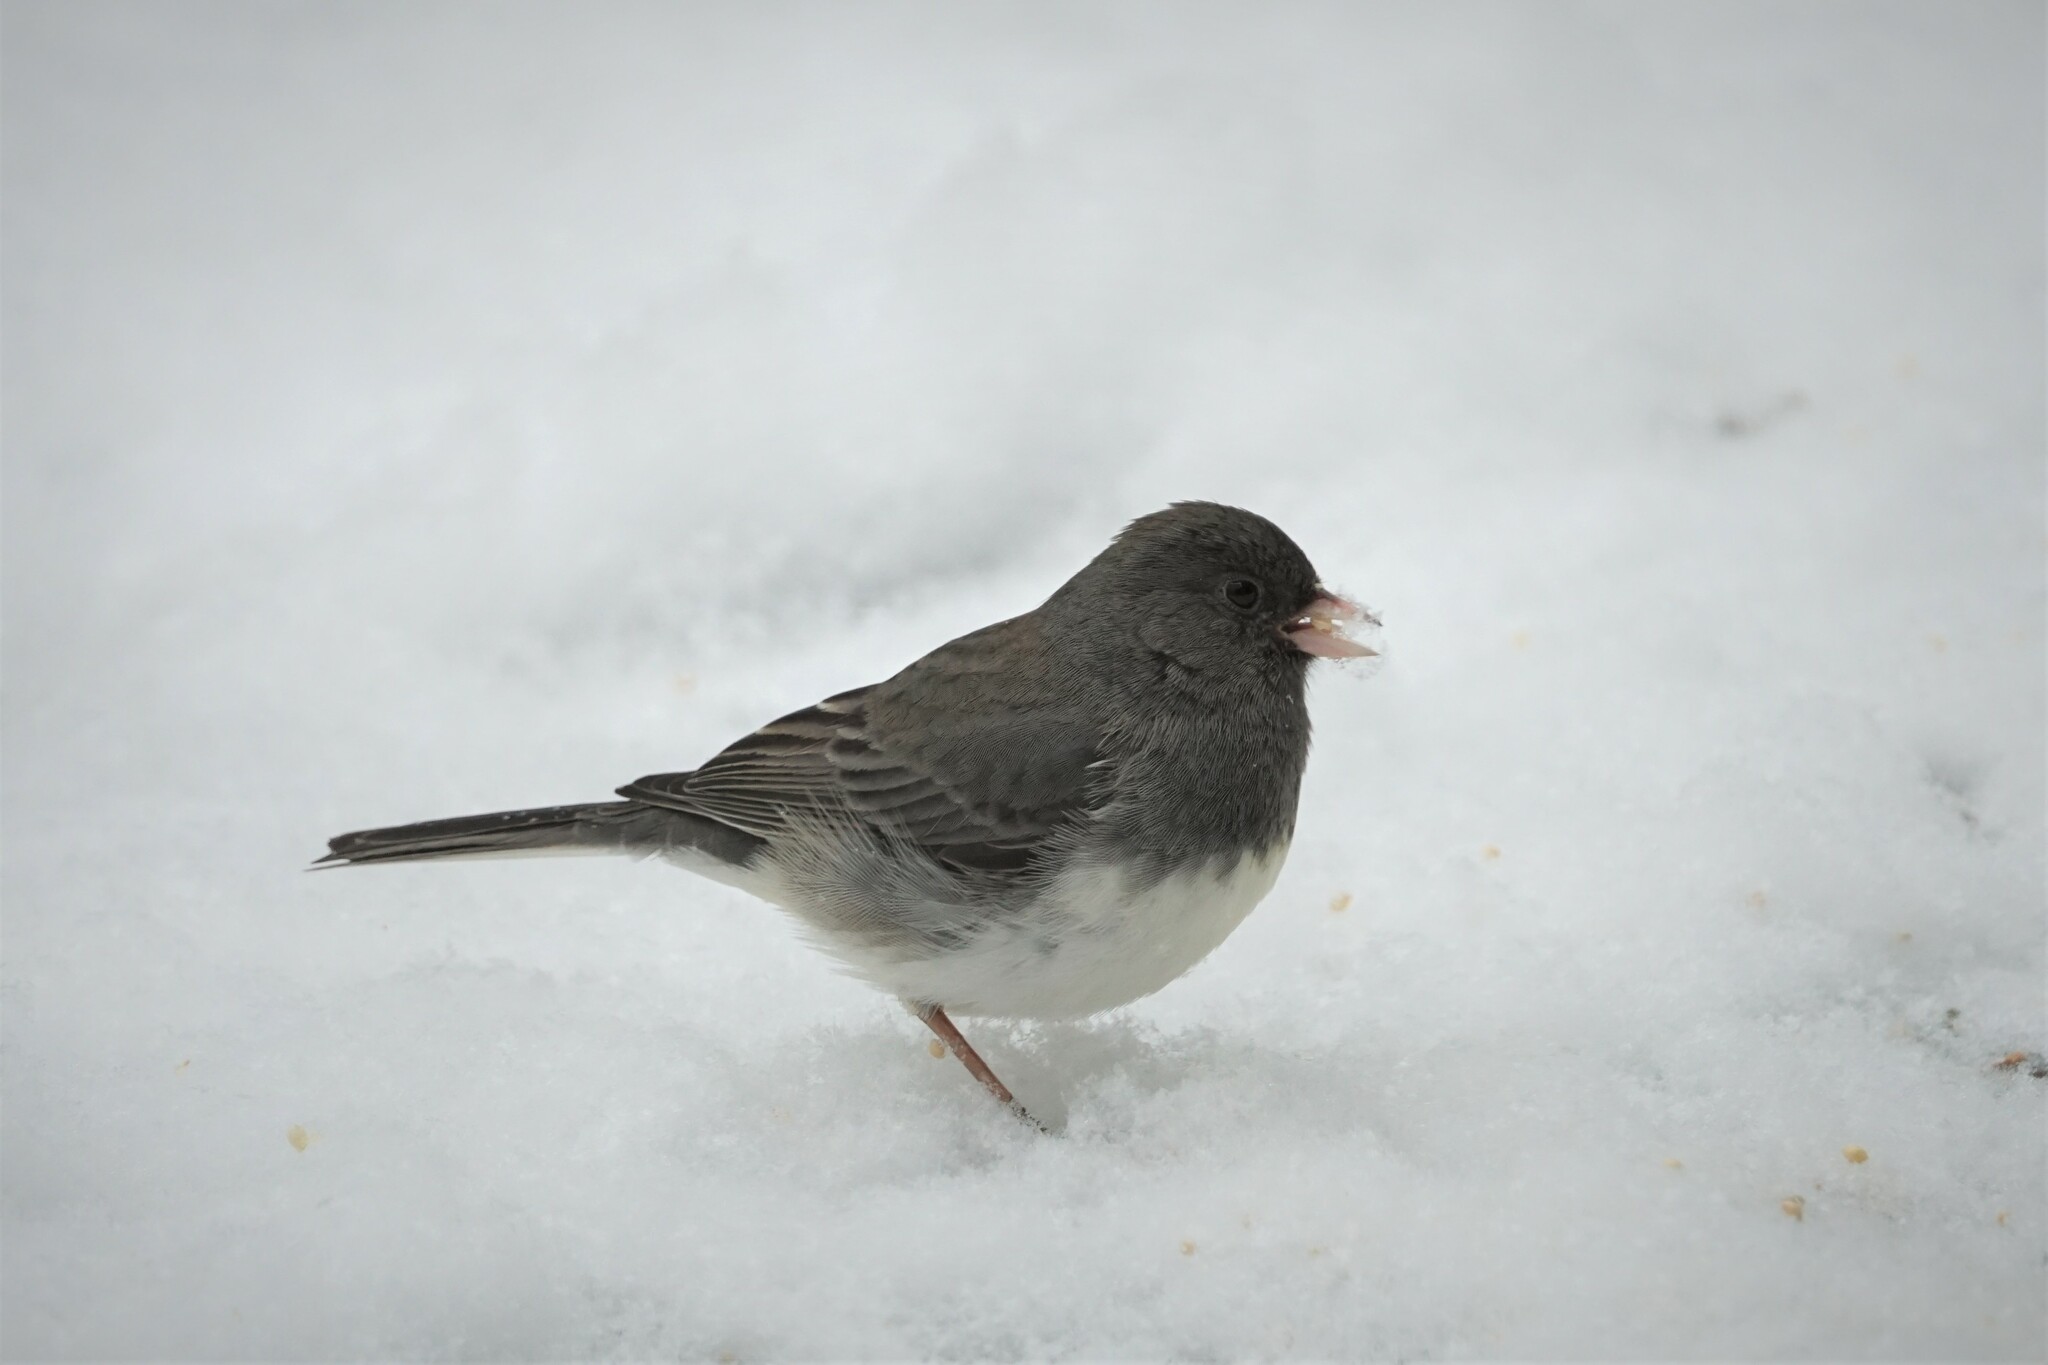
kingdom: Animalia
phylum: Chordata
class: Aves
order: Passeriformes
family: Passerellidae
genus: Junco
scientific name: Junco hyemalis
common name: Dark-eyed junco
